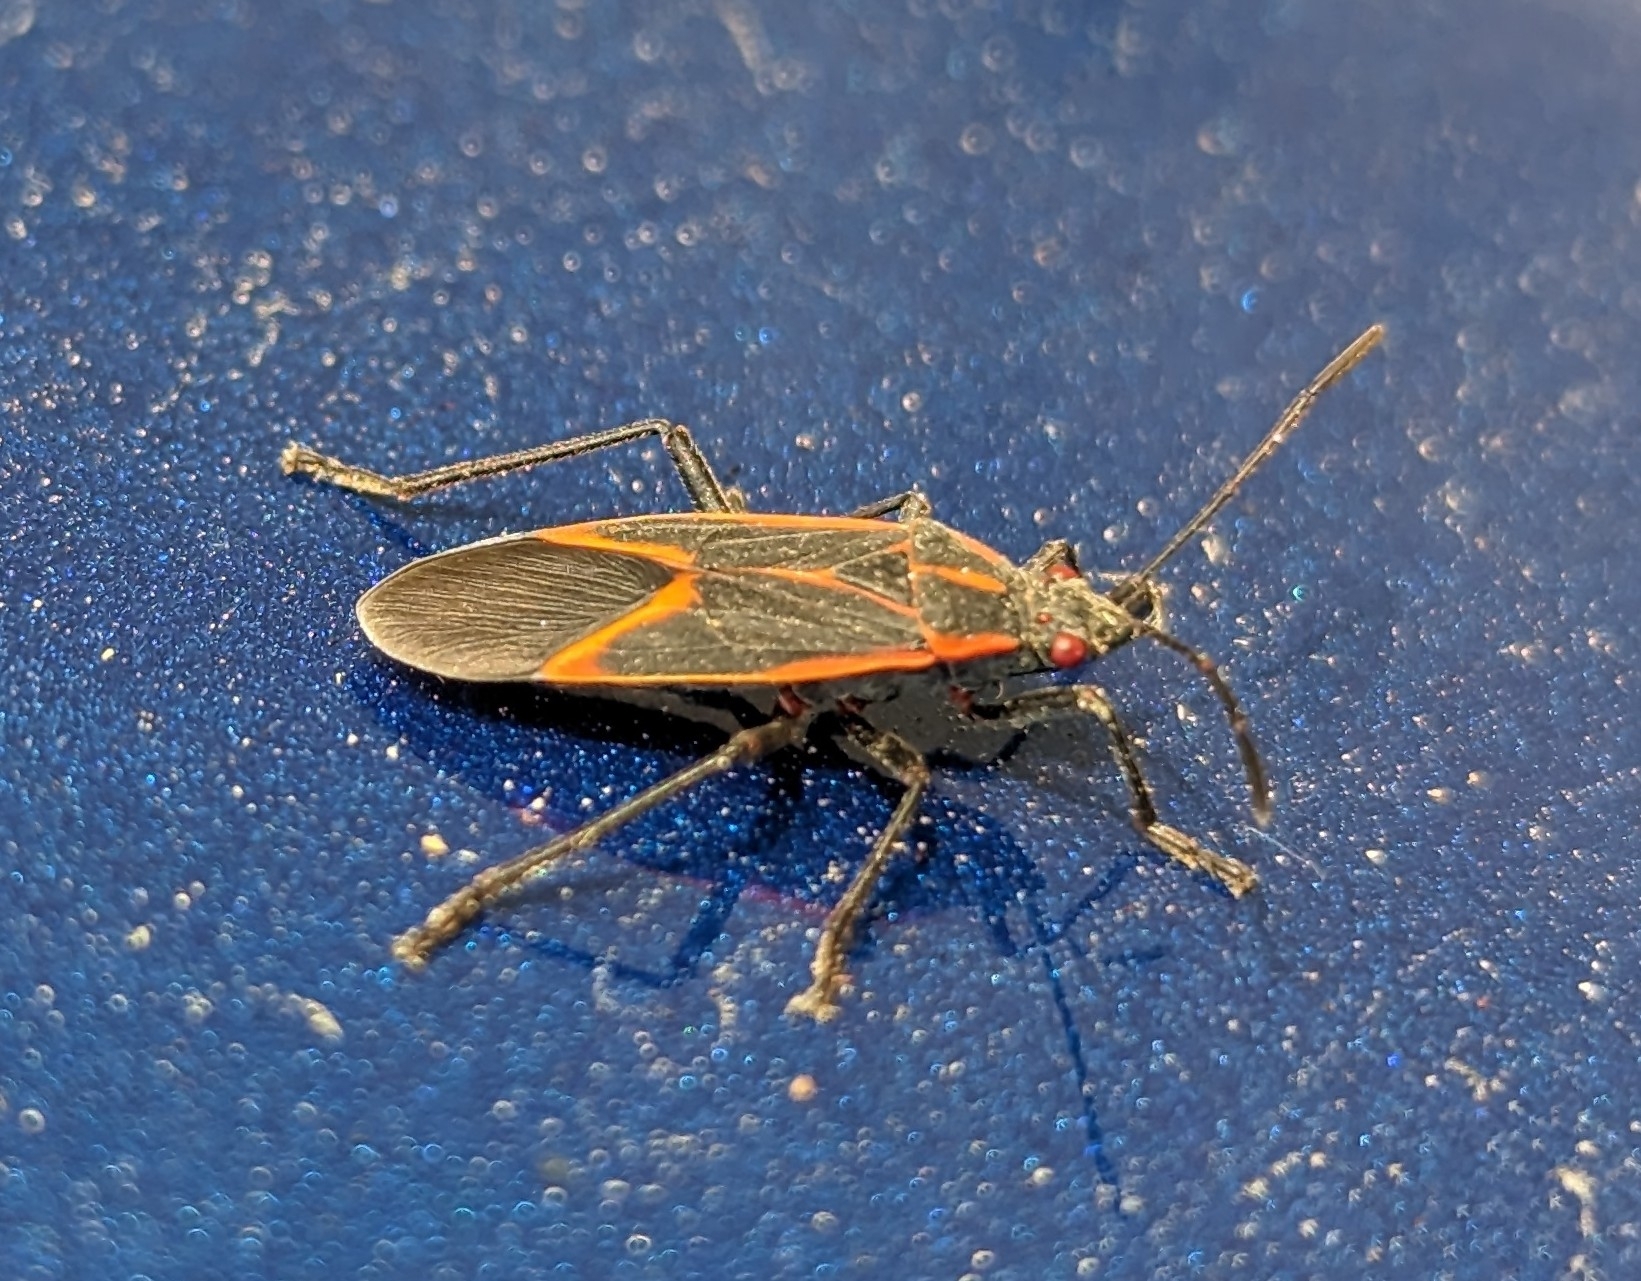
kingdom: Animalia
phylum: Arthropoda
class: Insecta
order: Hemiptera
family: Rhopalidae
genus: Boisea
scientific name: Boisea trivittata
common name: Boxelder bug
